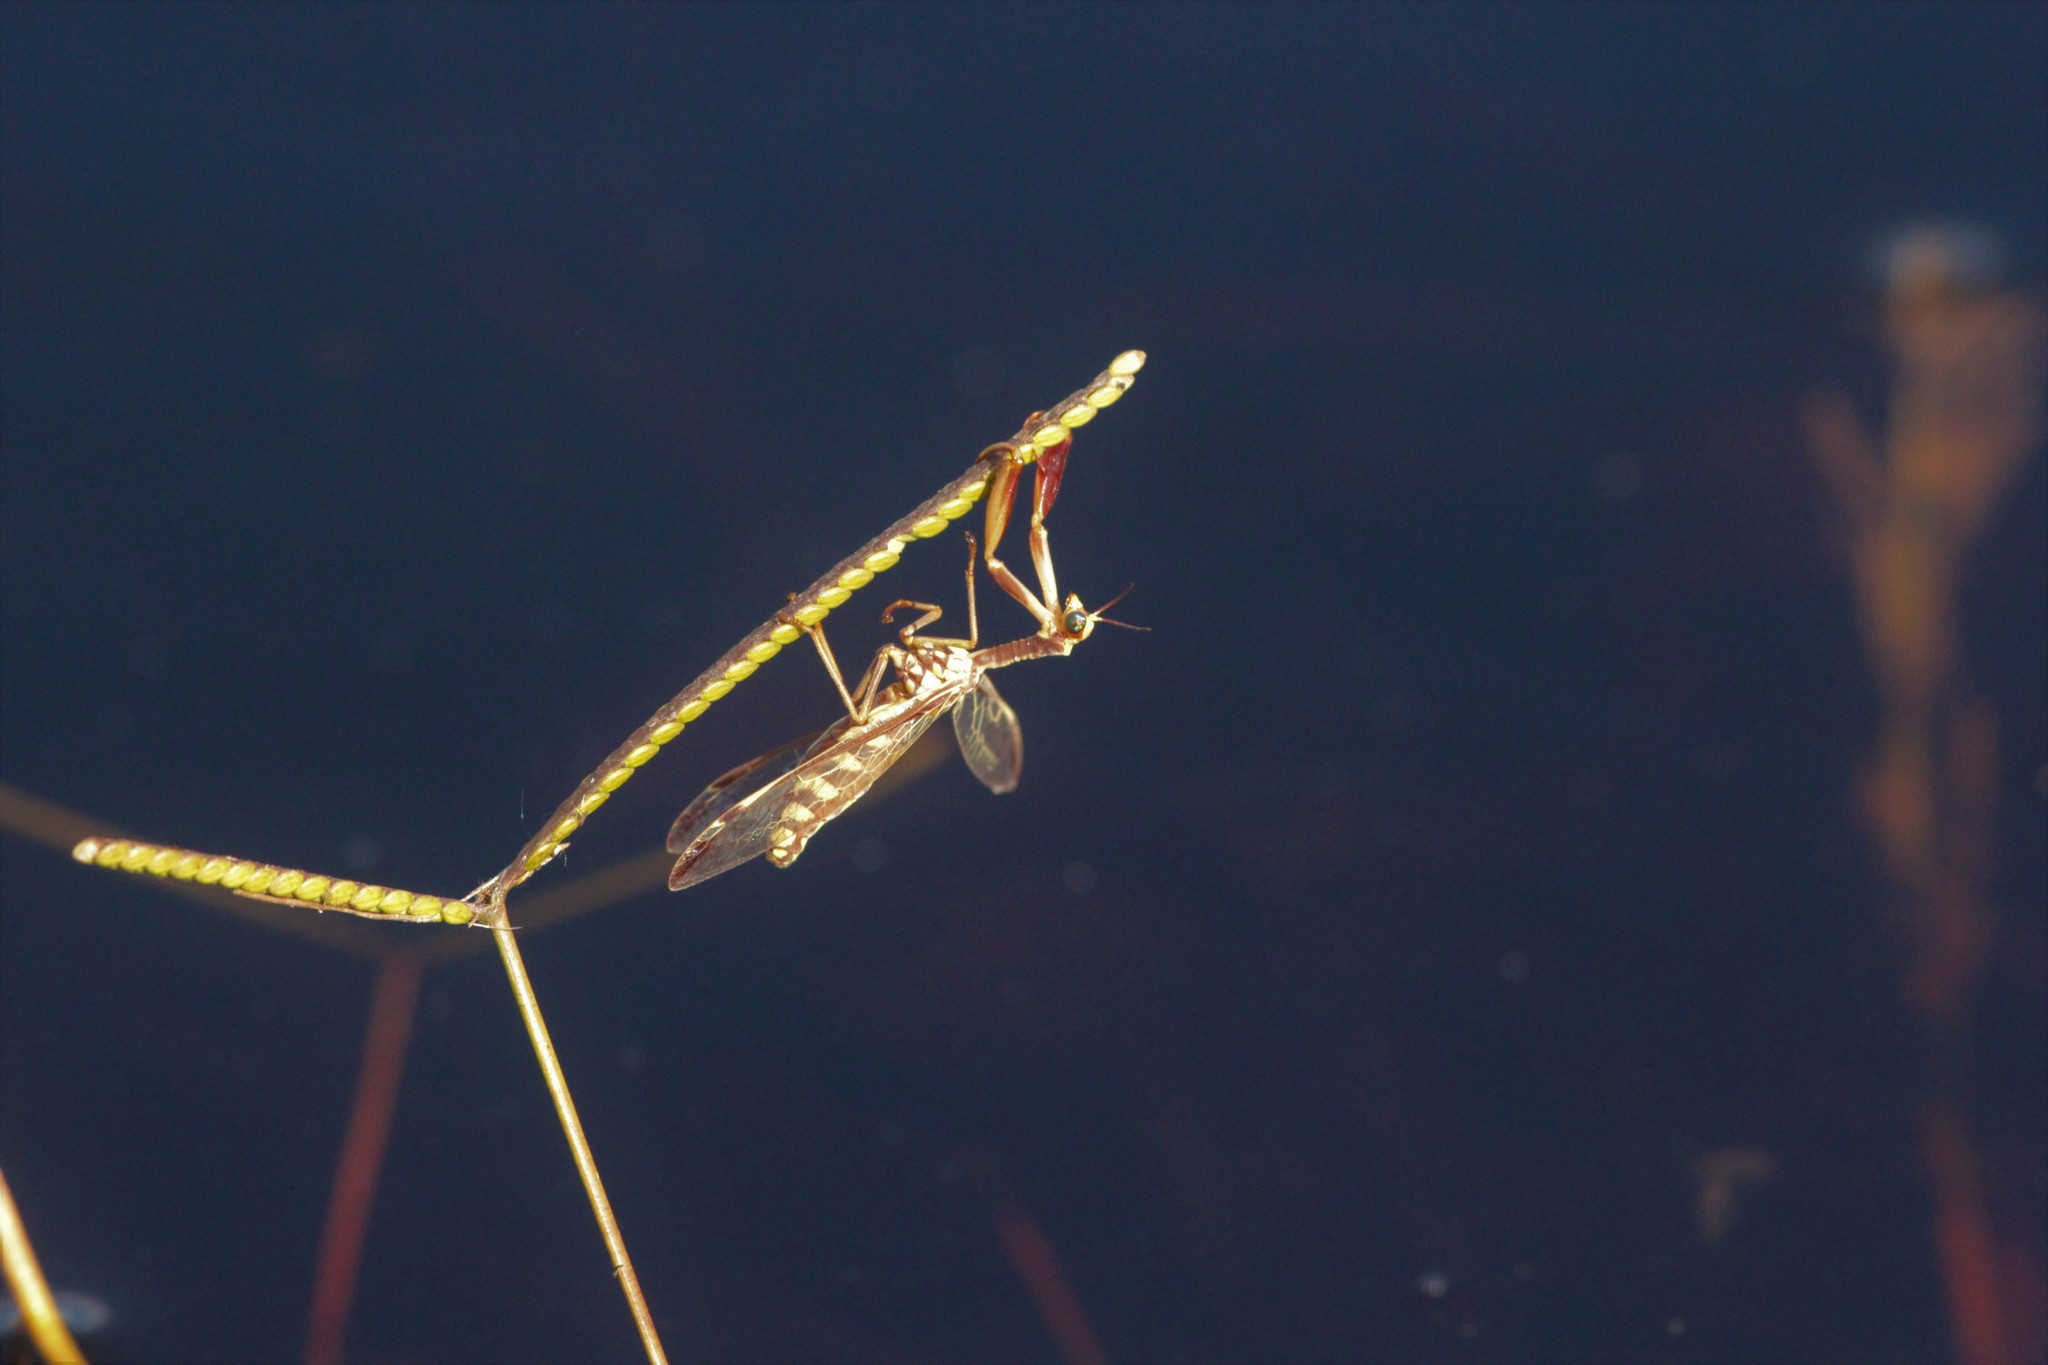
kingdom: Animalia
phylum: Arthropoda
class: Insecta
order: Neuroptera
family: Mantispidae
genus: Paramantispa
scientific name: Paramantispa prolixa
